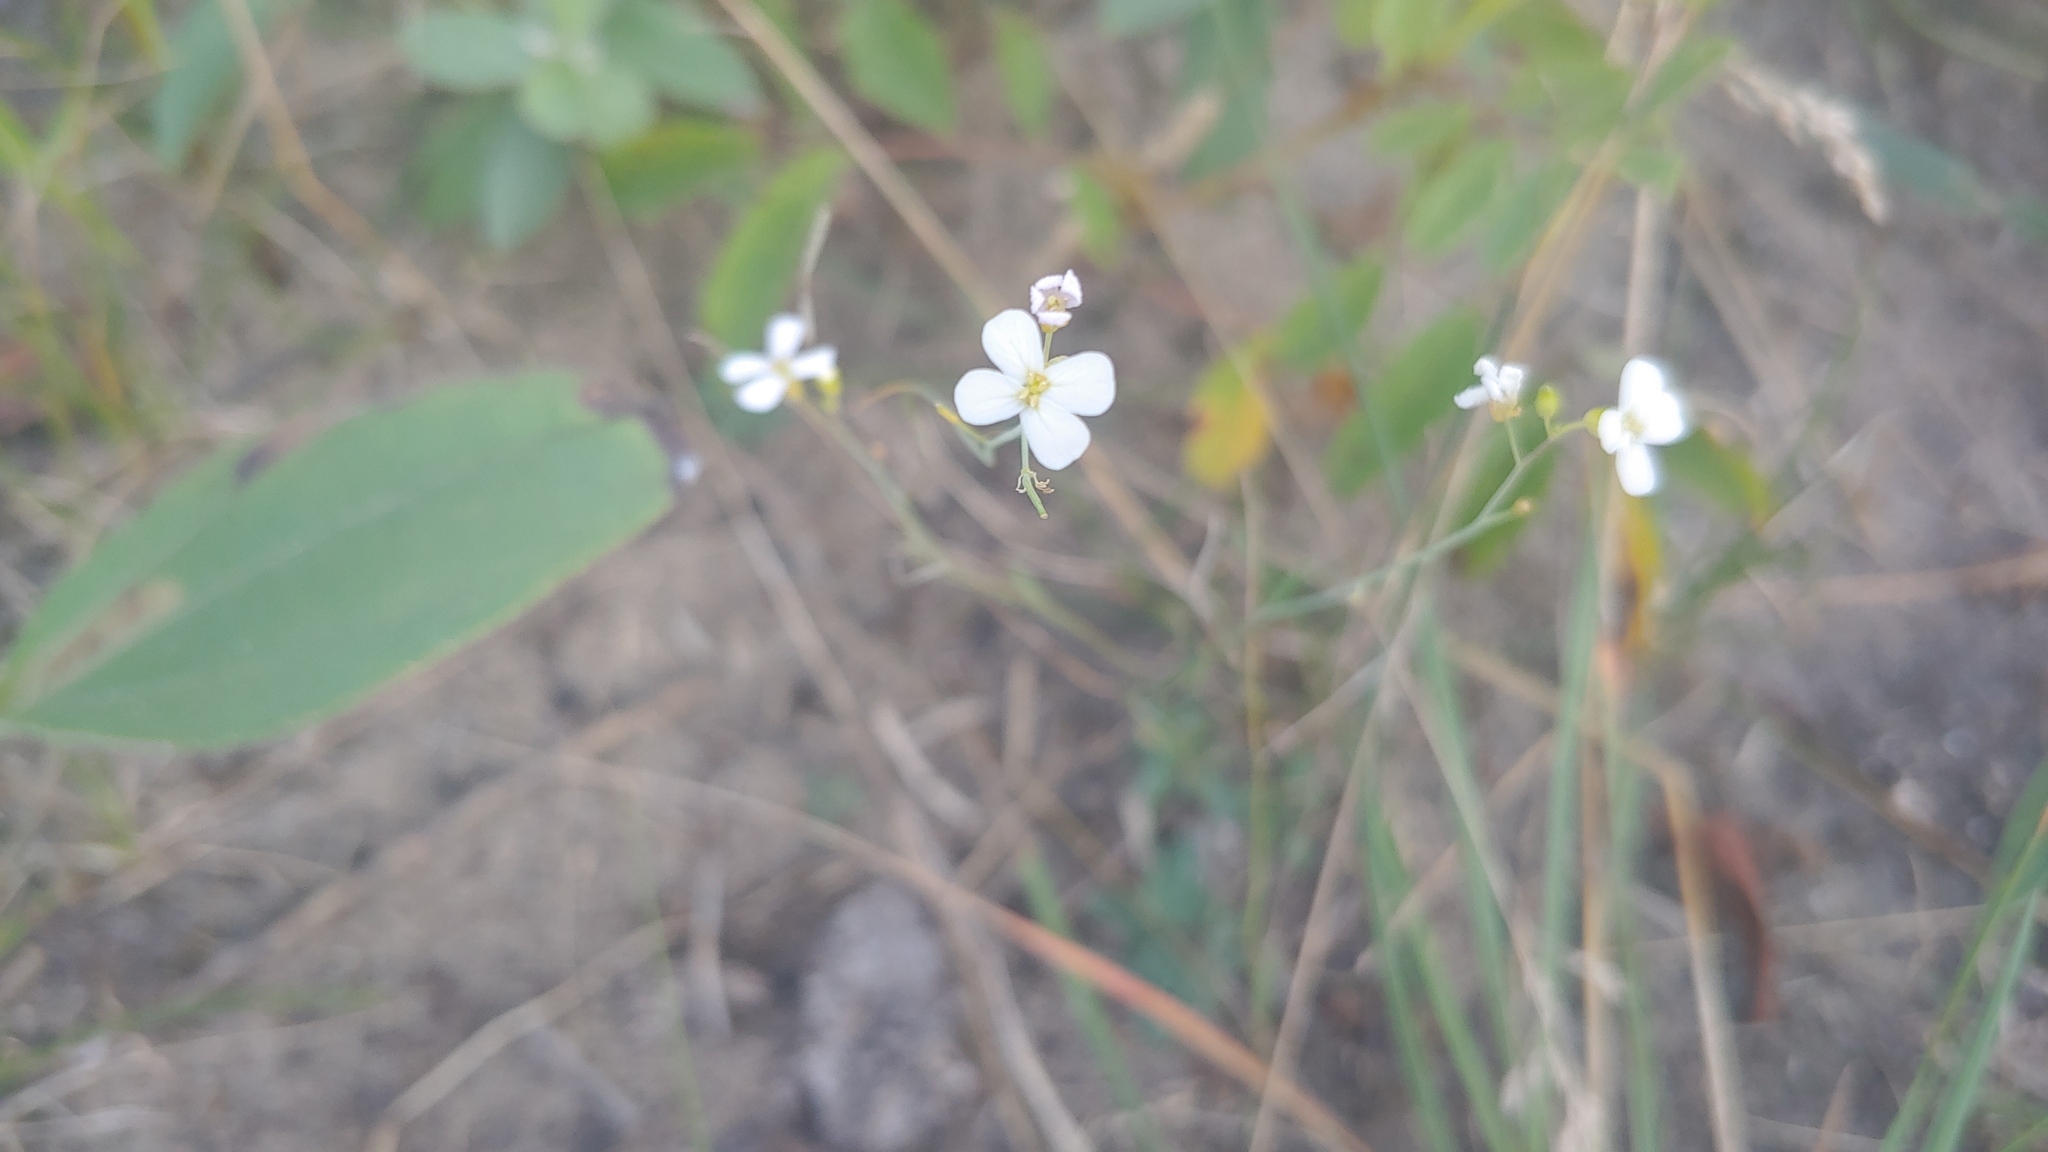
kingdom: Plantae
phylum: Tracheophyta
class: Magnoliopsida
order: Brassicales
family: Brassicaceae
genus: Arabidopsis
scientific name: Arabidopsis lyrata
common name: Lyrate rockcress
